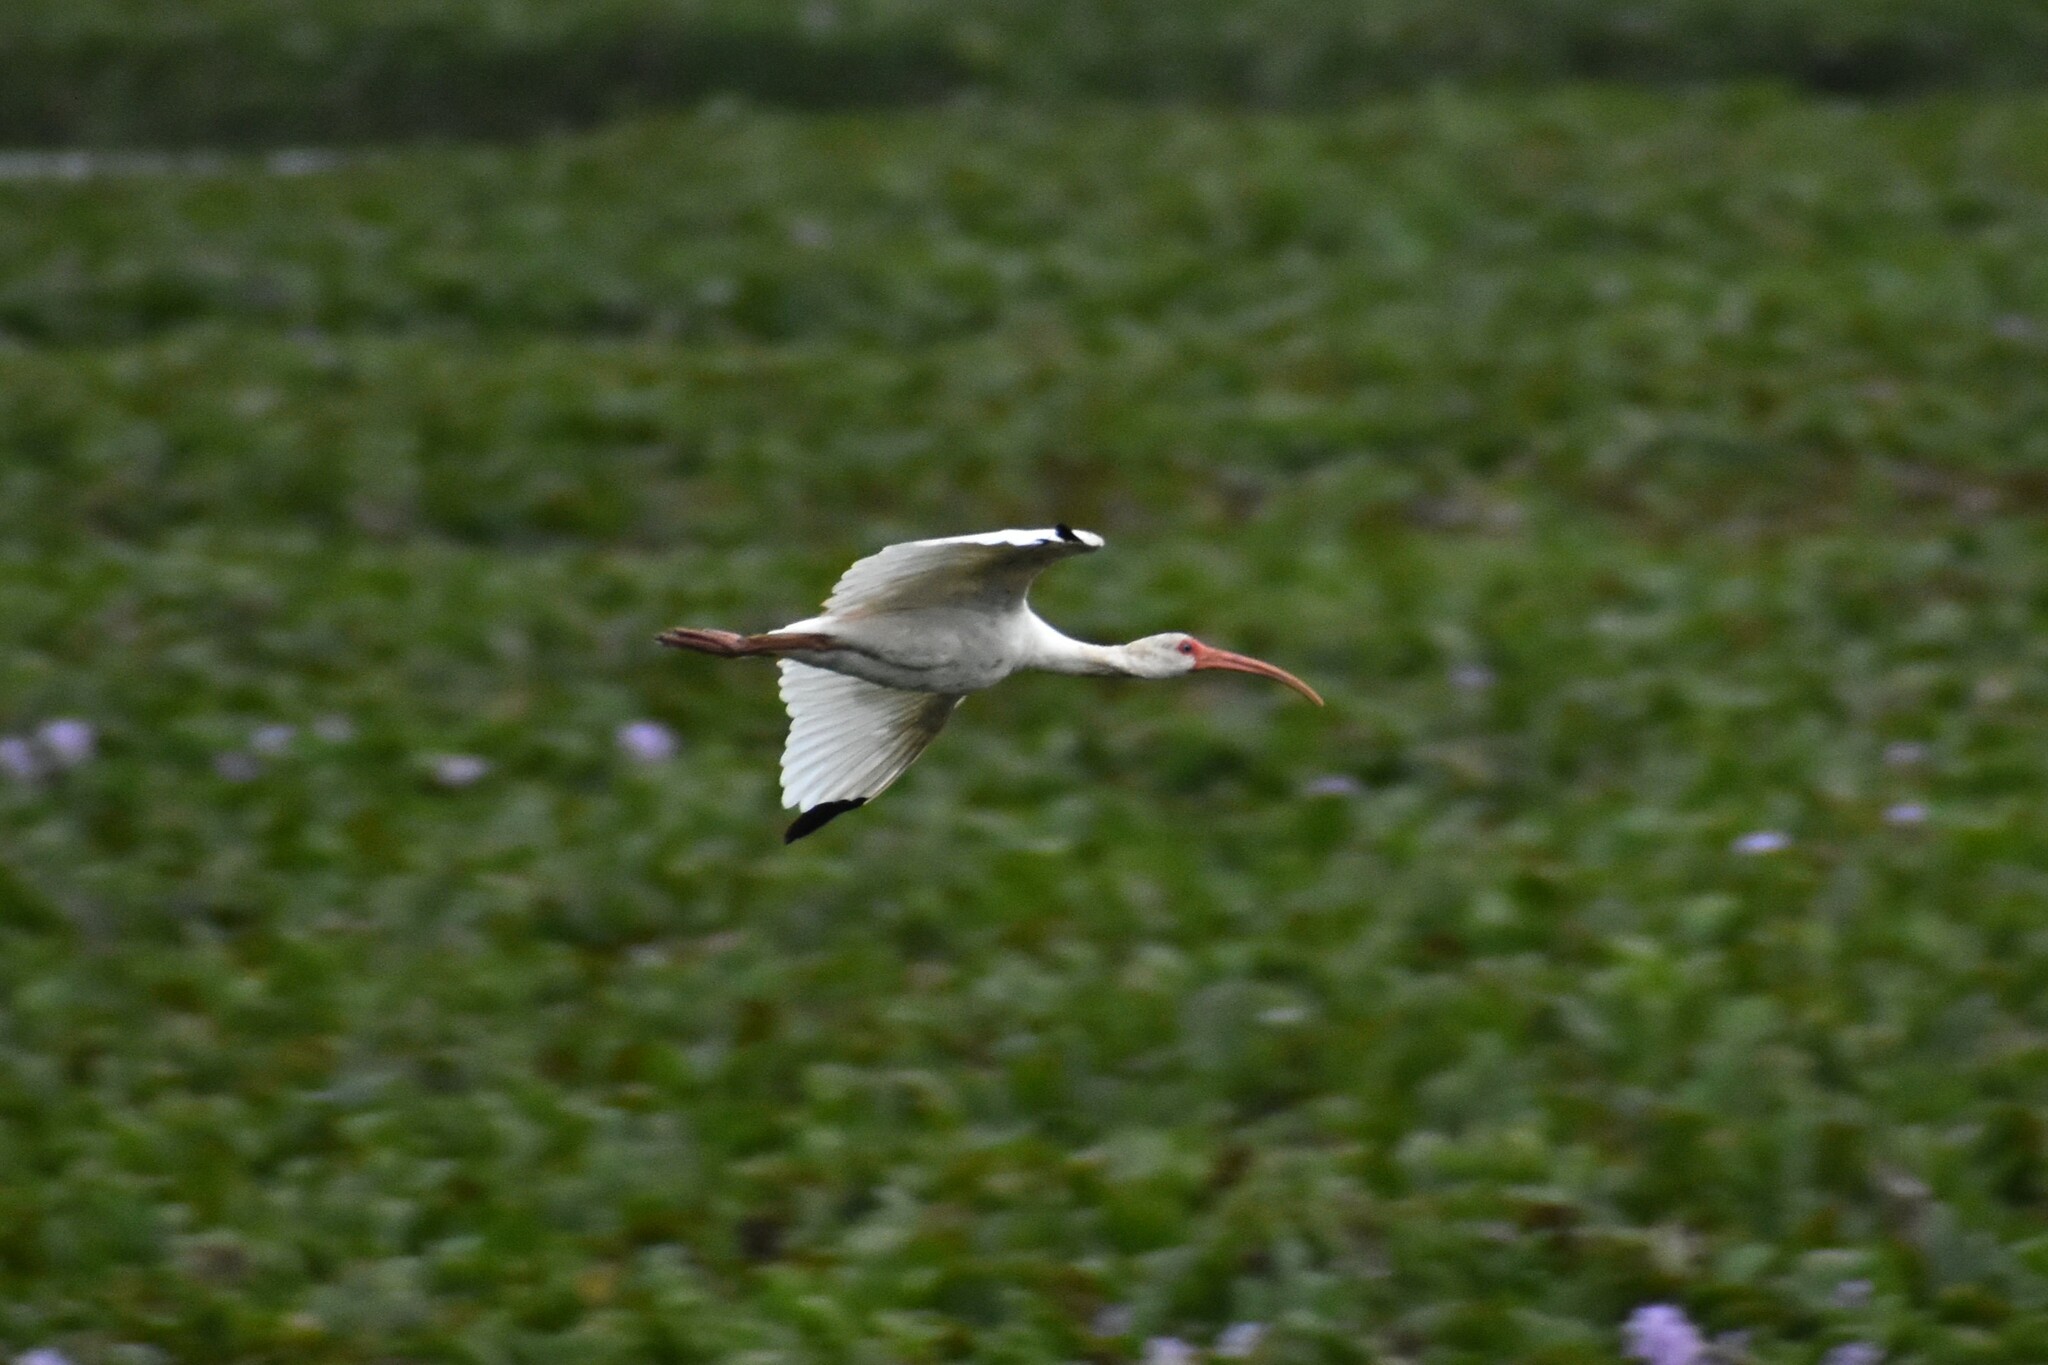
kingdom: Animalia
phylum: Chordata
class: Aves
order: Pelecaniformes
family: Threskiornithidae
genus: Eudocimus
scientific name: Eudocimus albus
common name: White ibis
